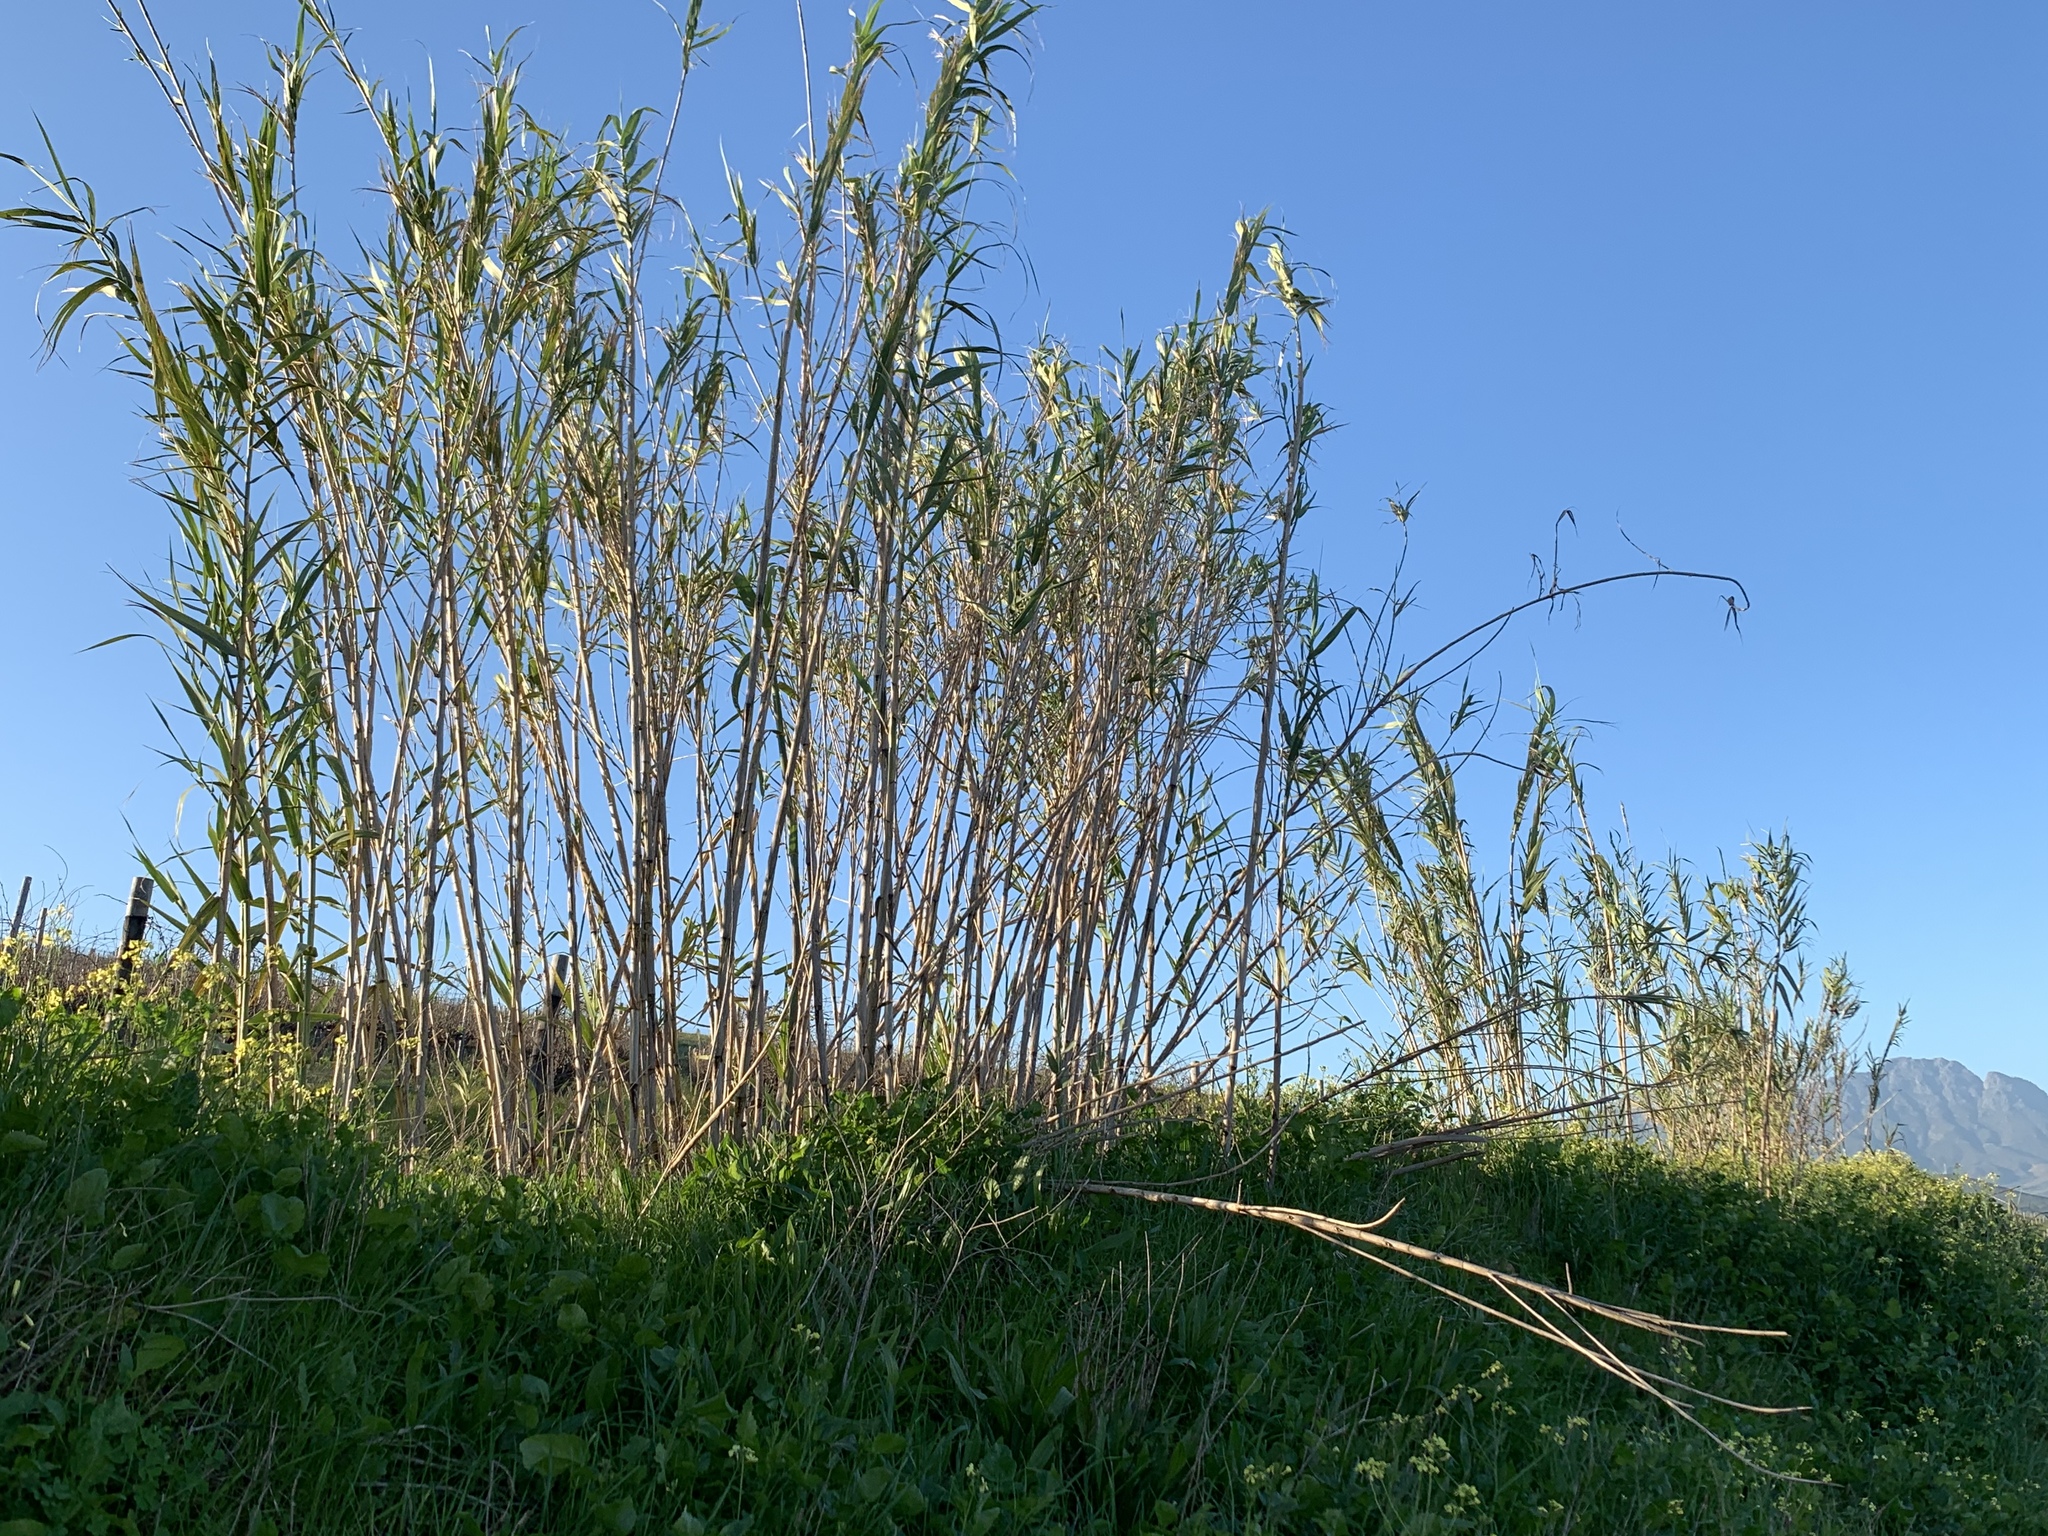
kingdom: Plantae
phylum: Tracheophyta
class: Liliopsida
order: Poales
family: Poaceae
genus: Arundo
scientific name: Arundo donax
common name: Giant reed
